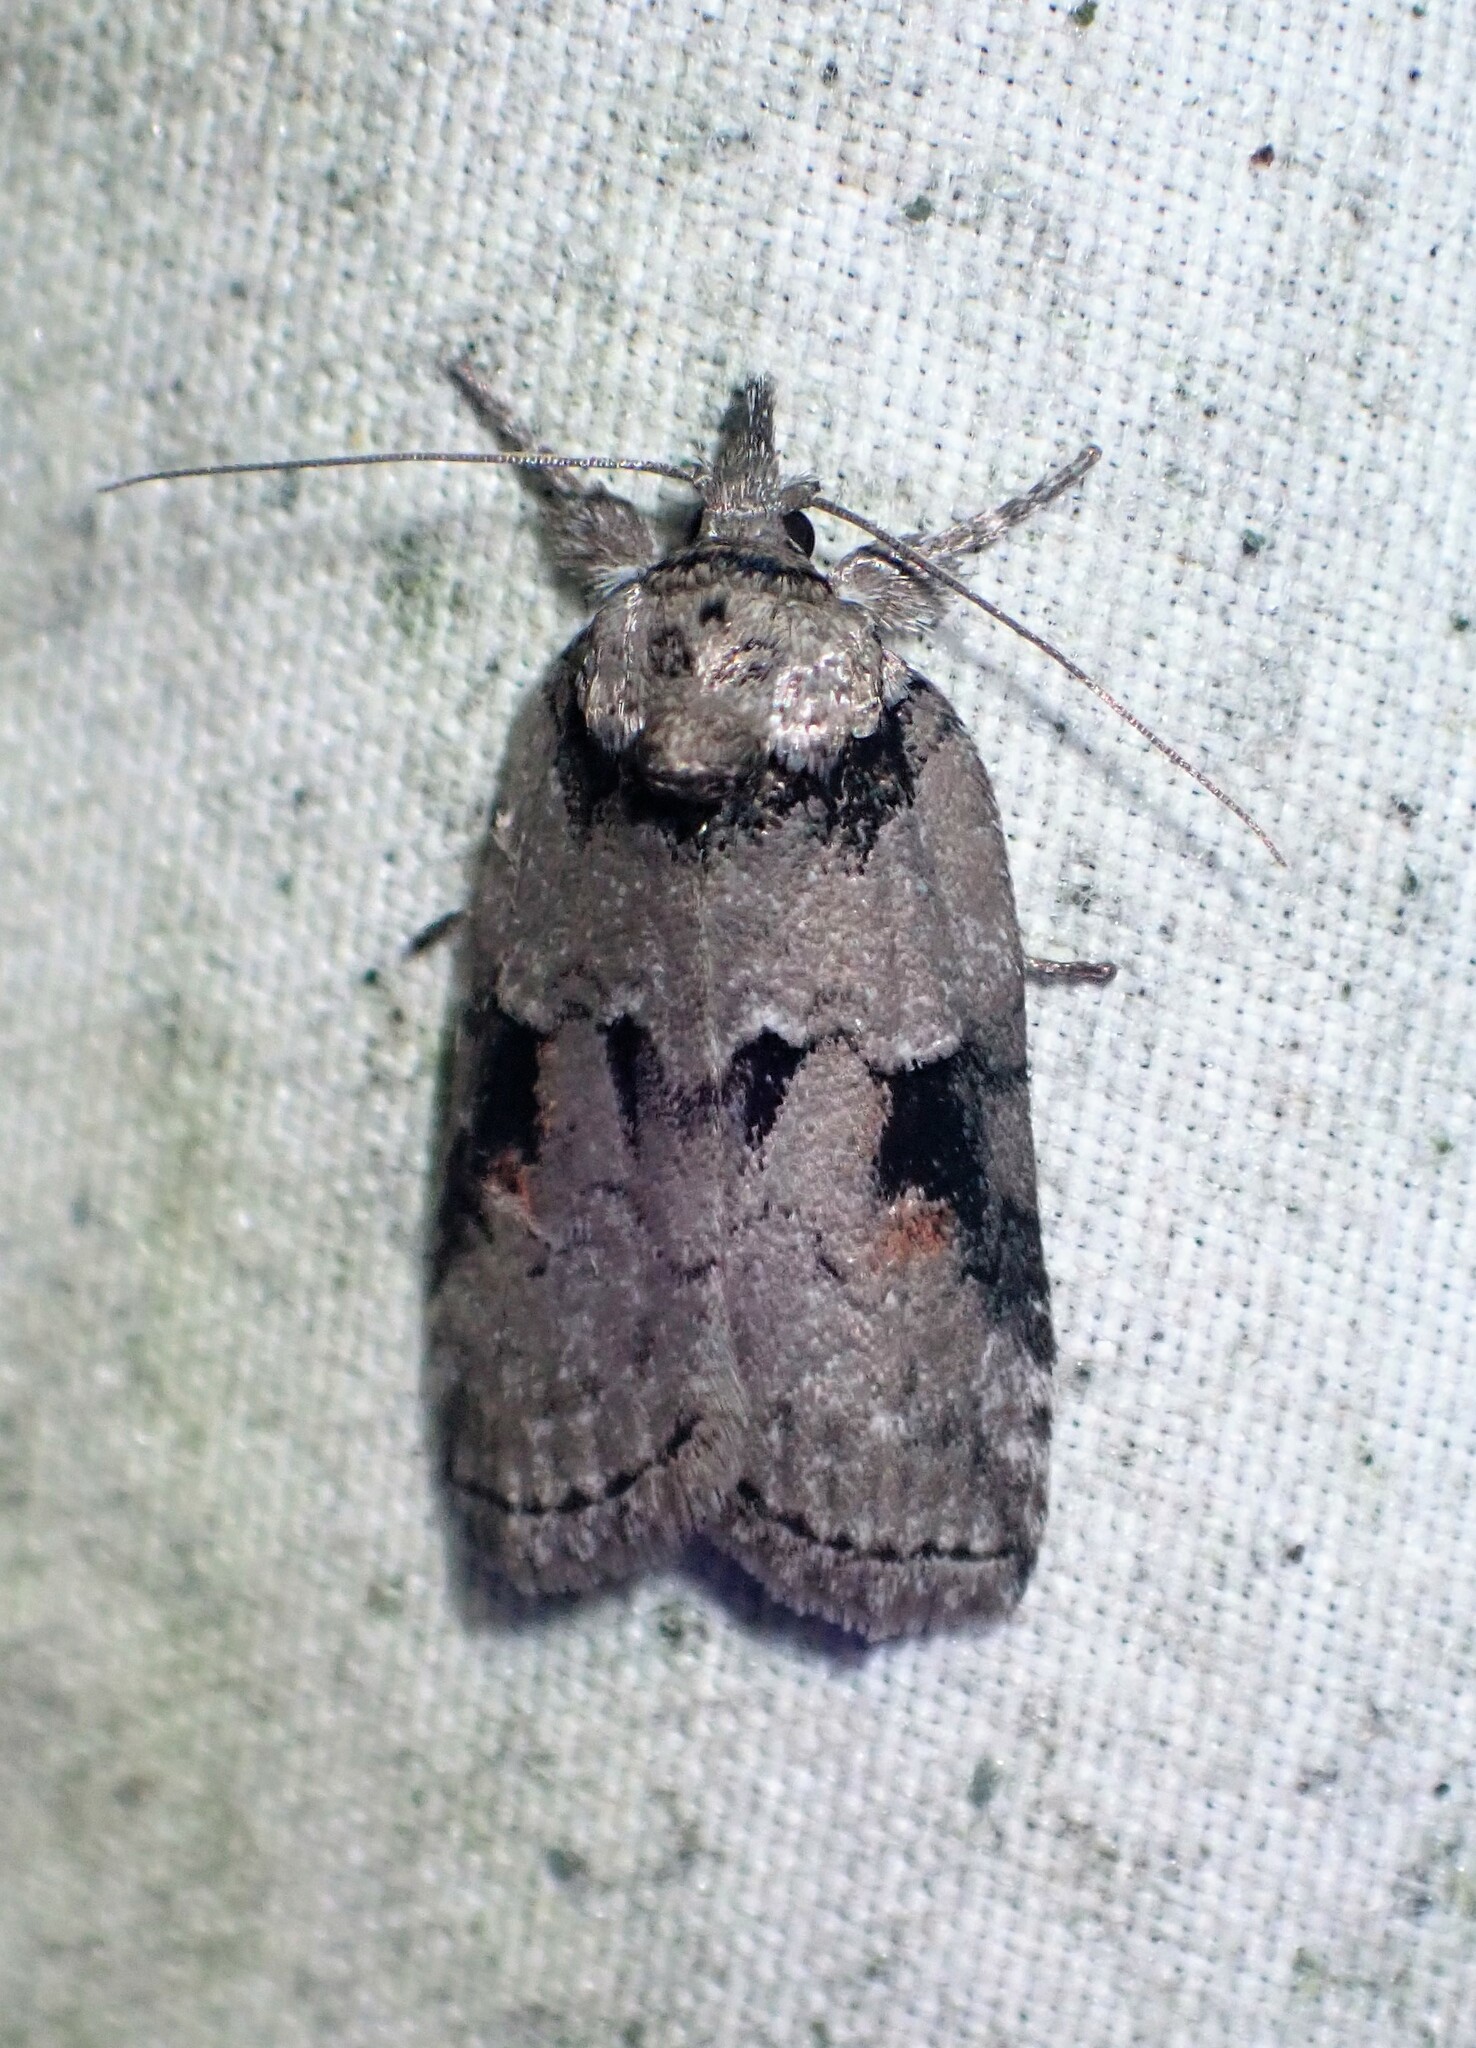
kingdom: Animalia
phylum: Arthropoda
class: Insecta
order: Lepidoptera
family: Nolidae
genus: Nycteola
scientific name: Nycteola cinereana
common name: Grey midget moth
